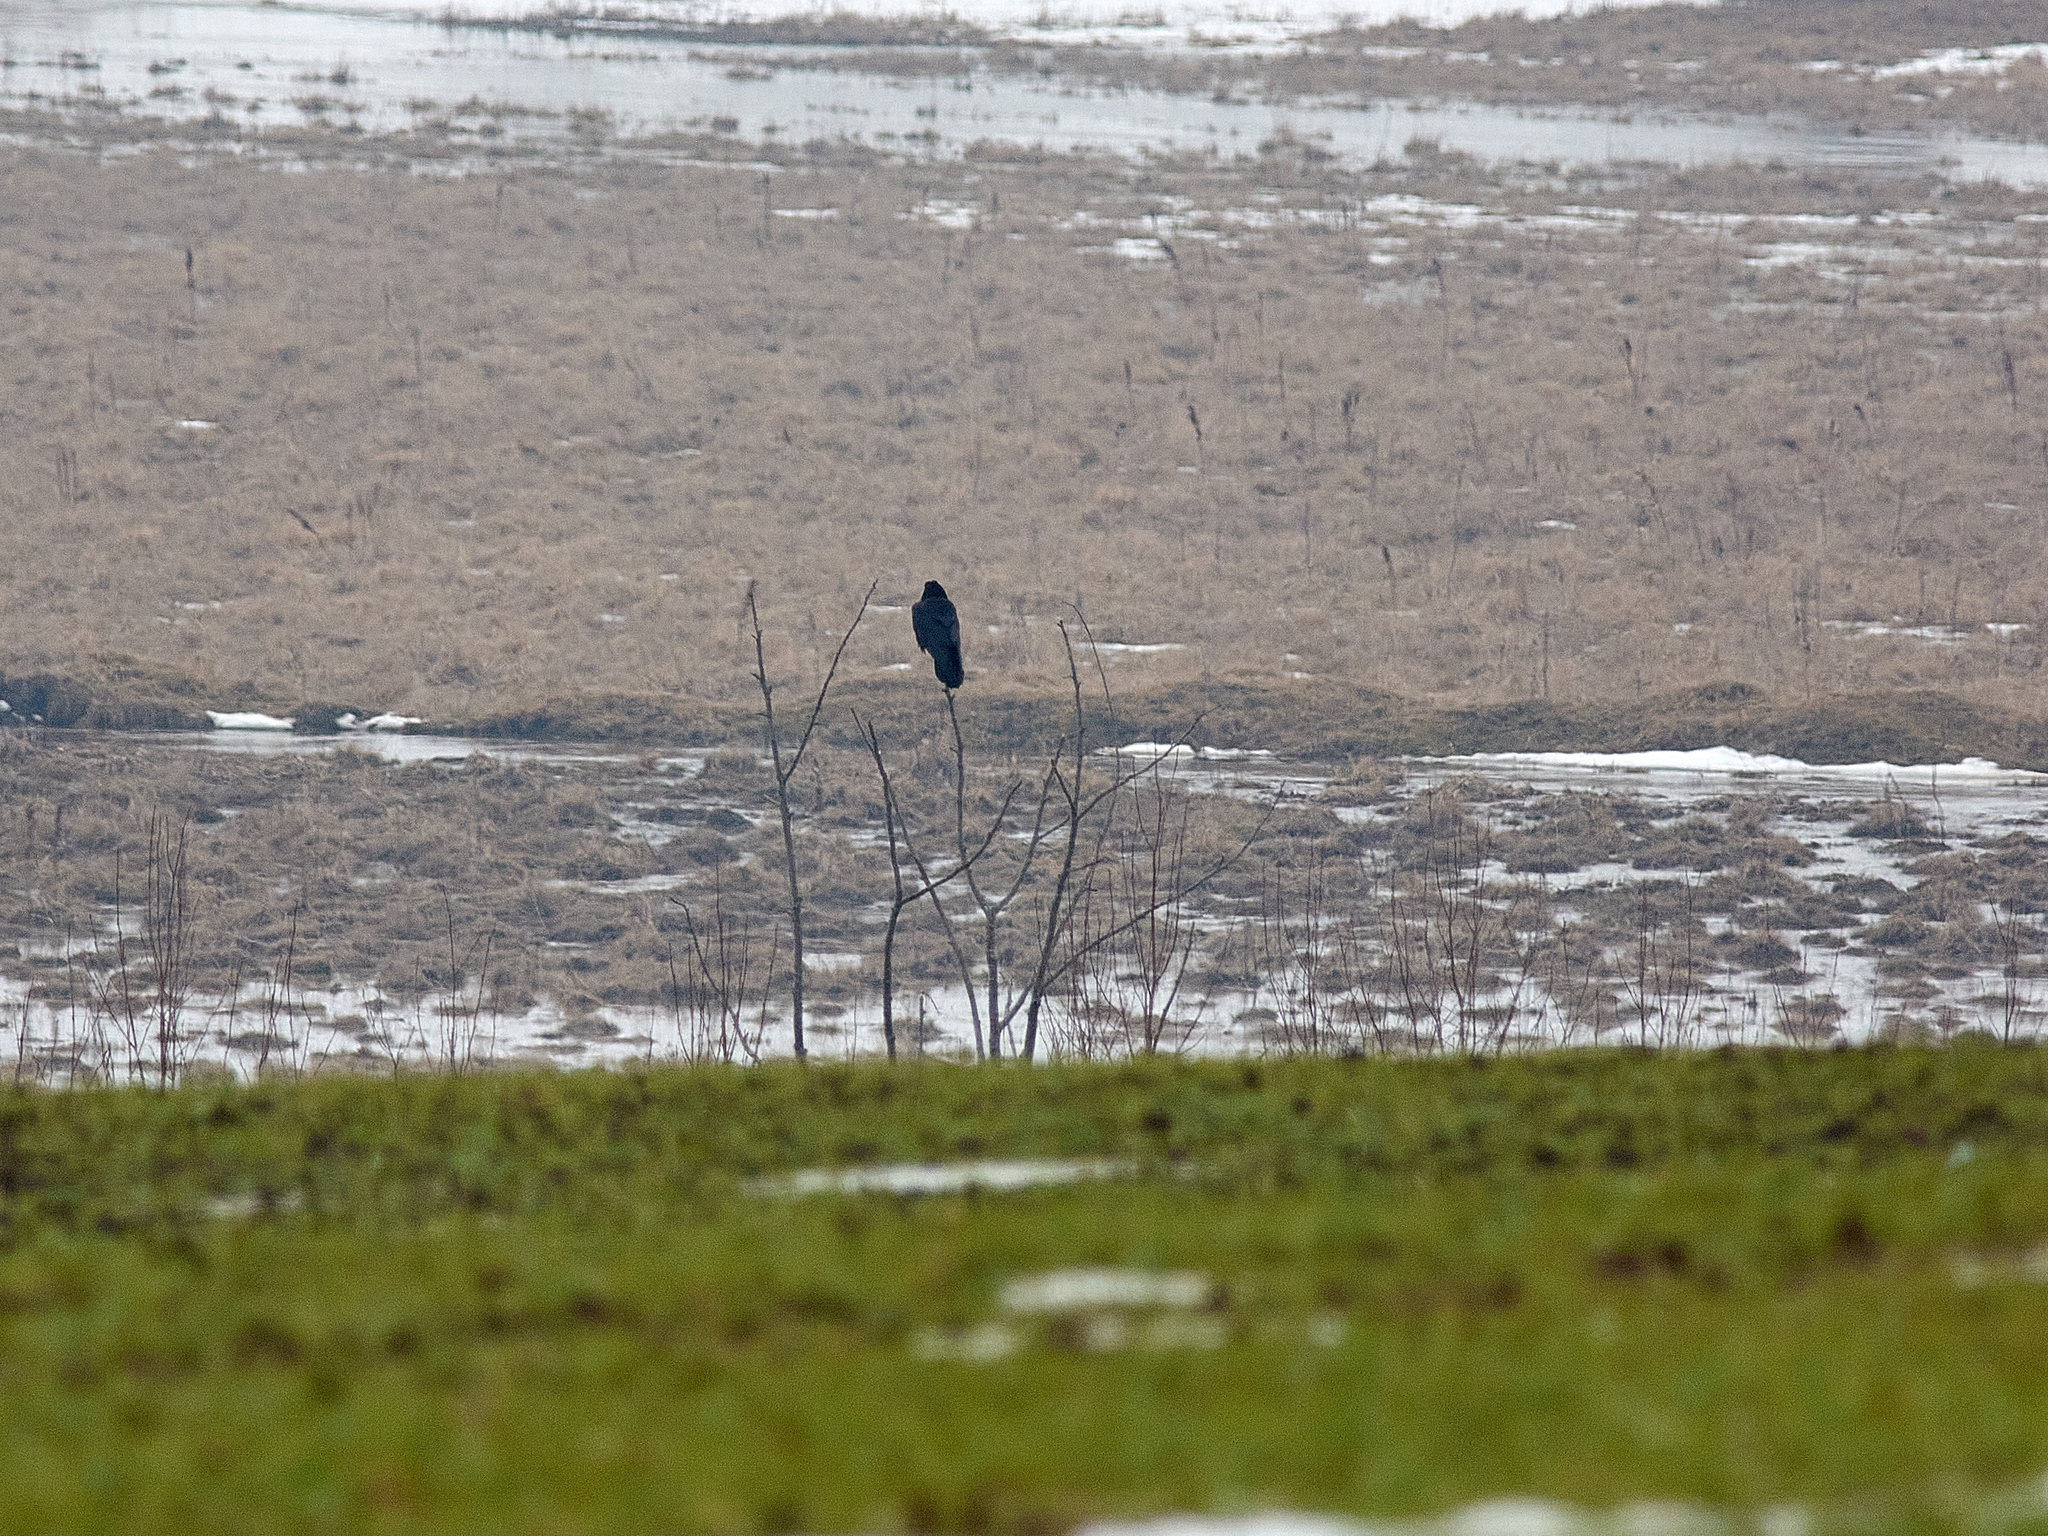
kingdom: Animalia
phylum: Chordata
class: Aves
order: Passeriformes
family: Corvidae
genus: Corvus
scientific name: Corvus corax
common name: Common raven
